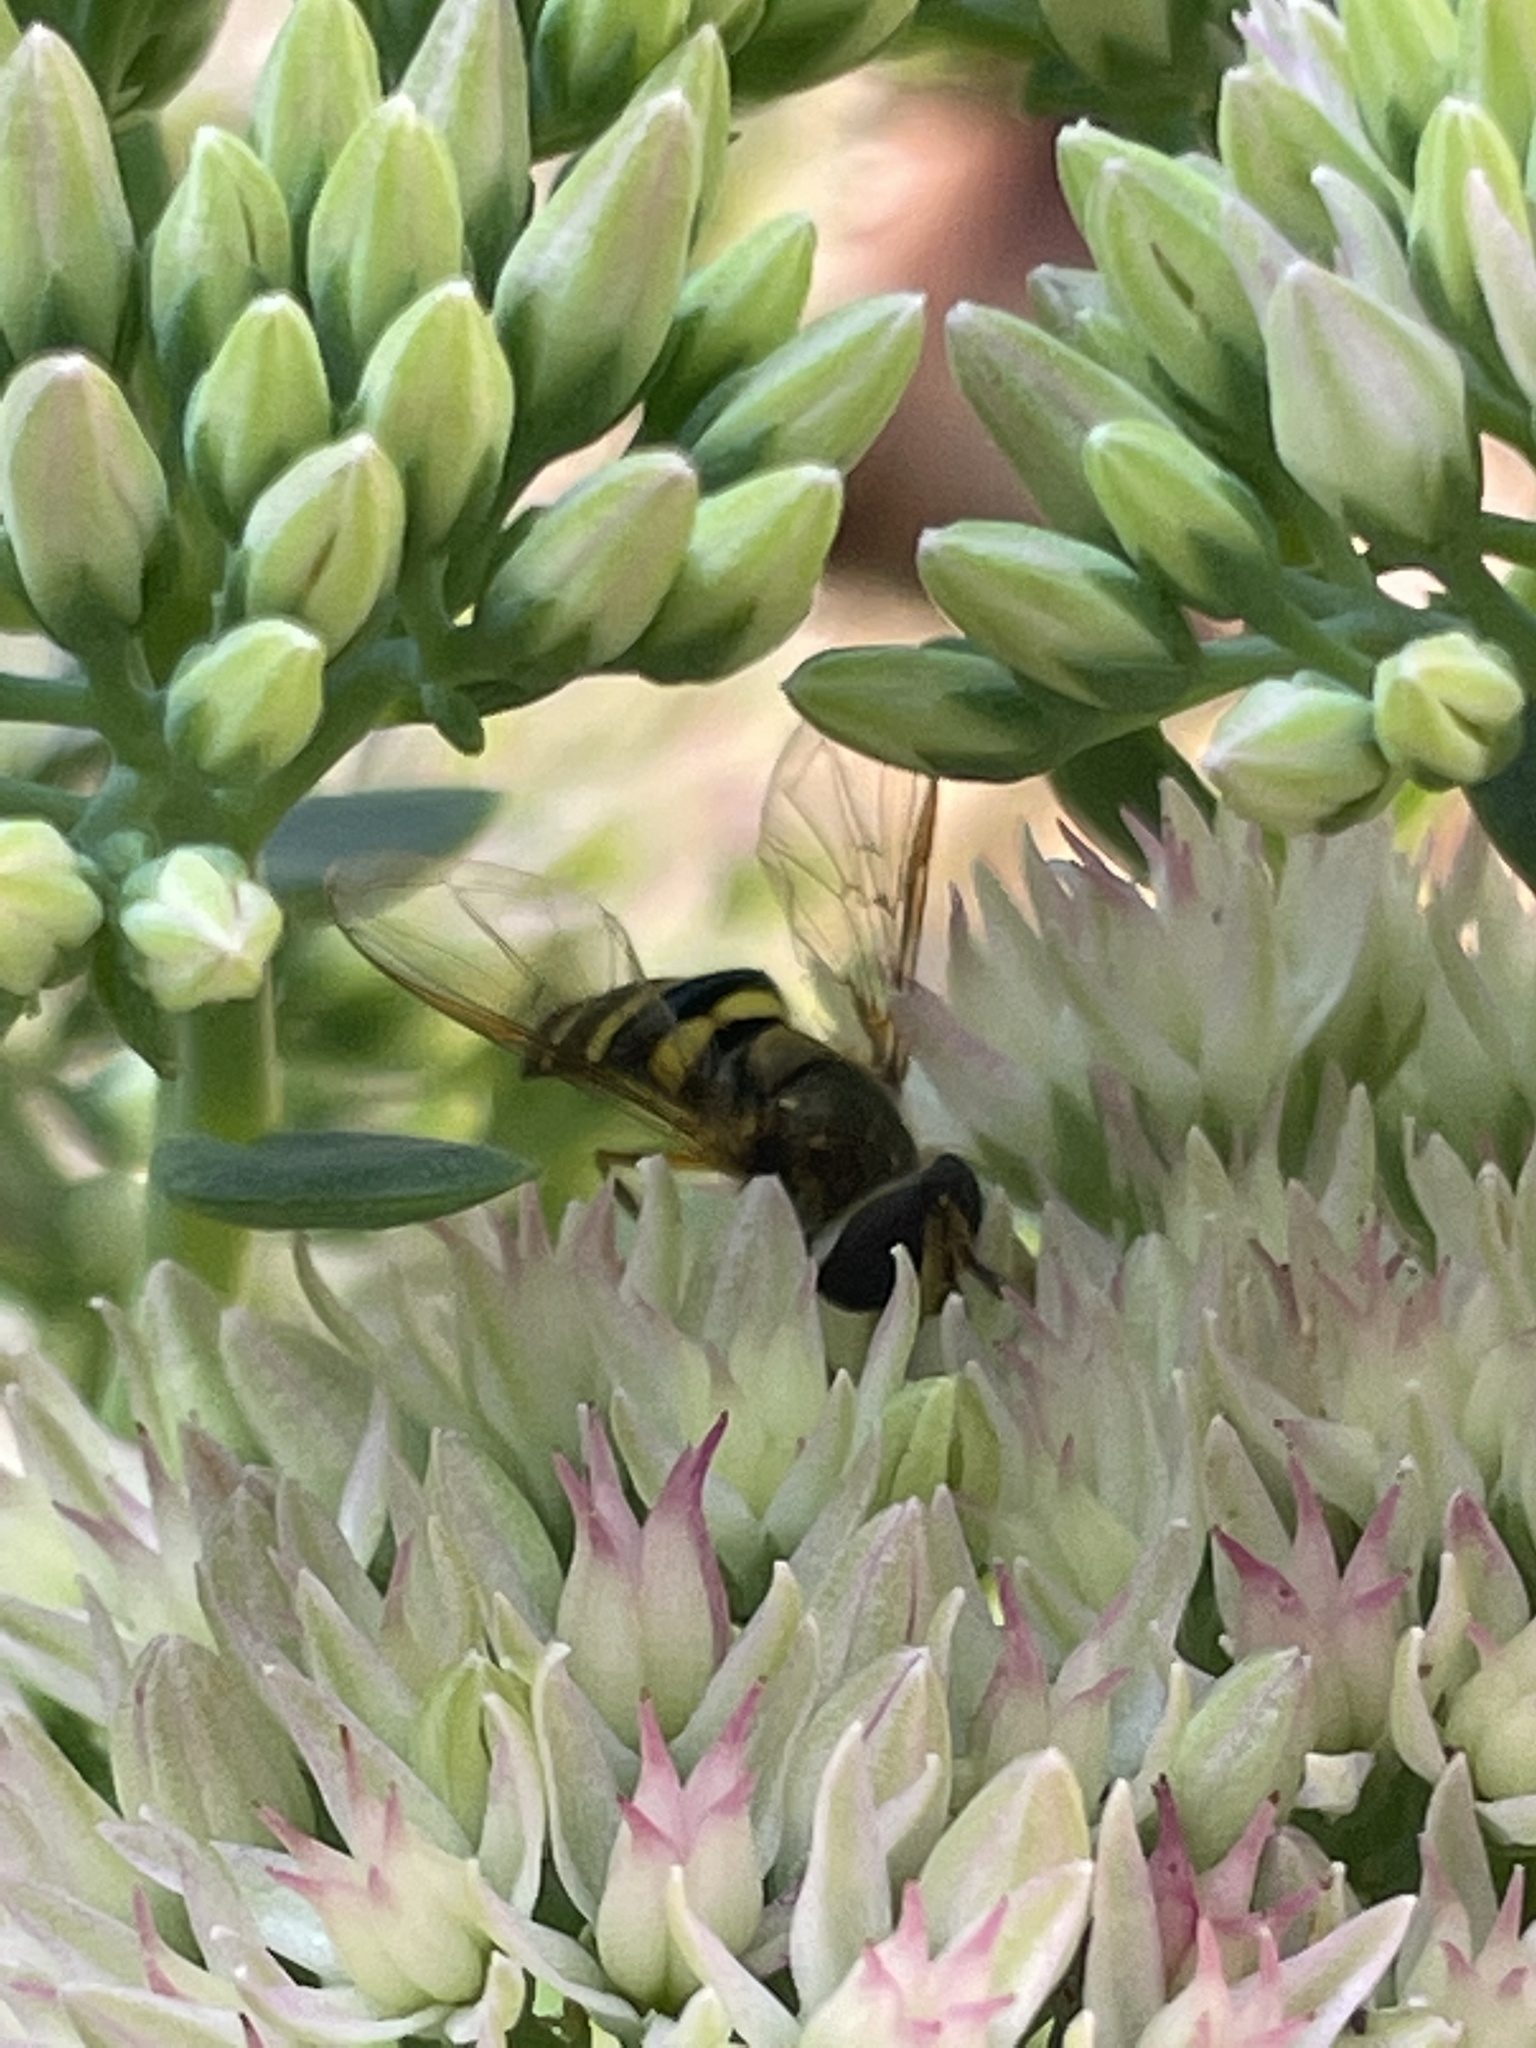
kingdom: Animalia
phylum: Arthropoda
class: Insecta
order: Diptera
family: Syrphidae
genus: Eupeodes
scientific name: Eupeodes
